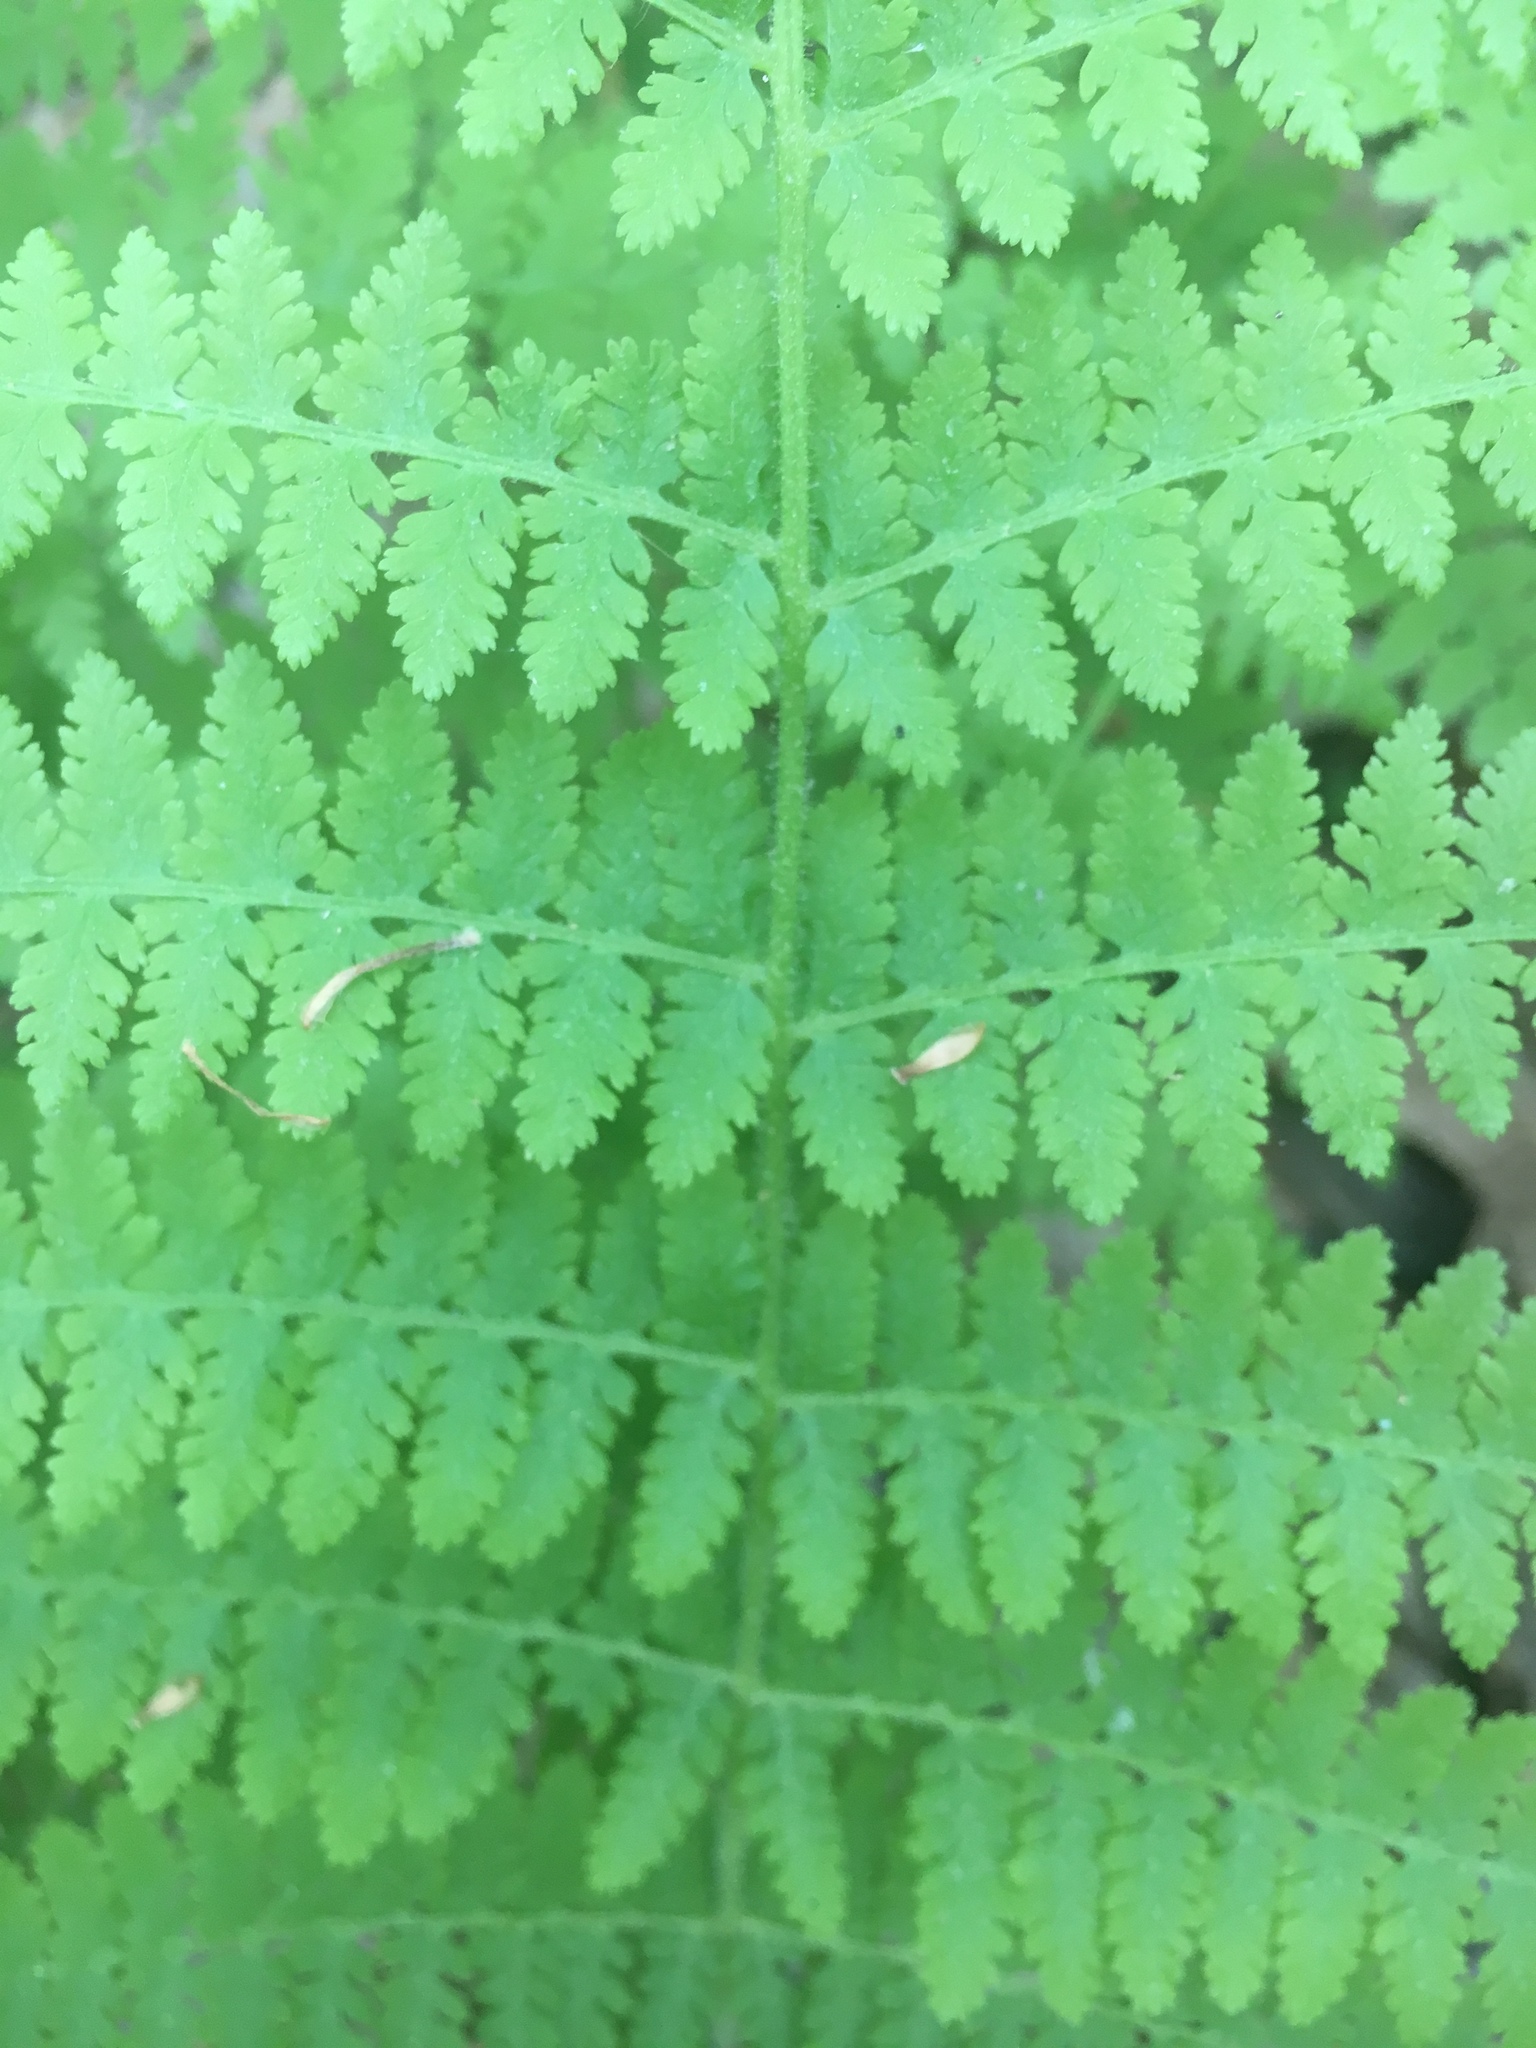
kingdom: Plantae
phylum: Tracheophyta
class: Polypodiopsida
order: Polypodiales
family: Dennstaedtiaceae
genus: Sitobolium
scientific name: Sitobolium punctilobum
